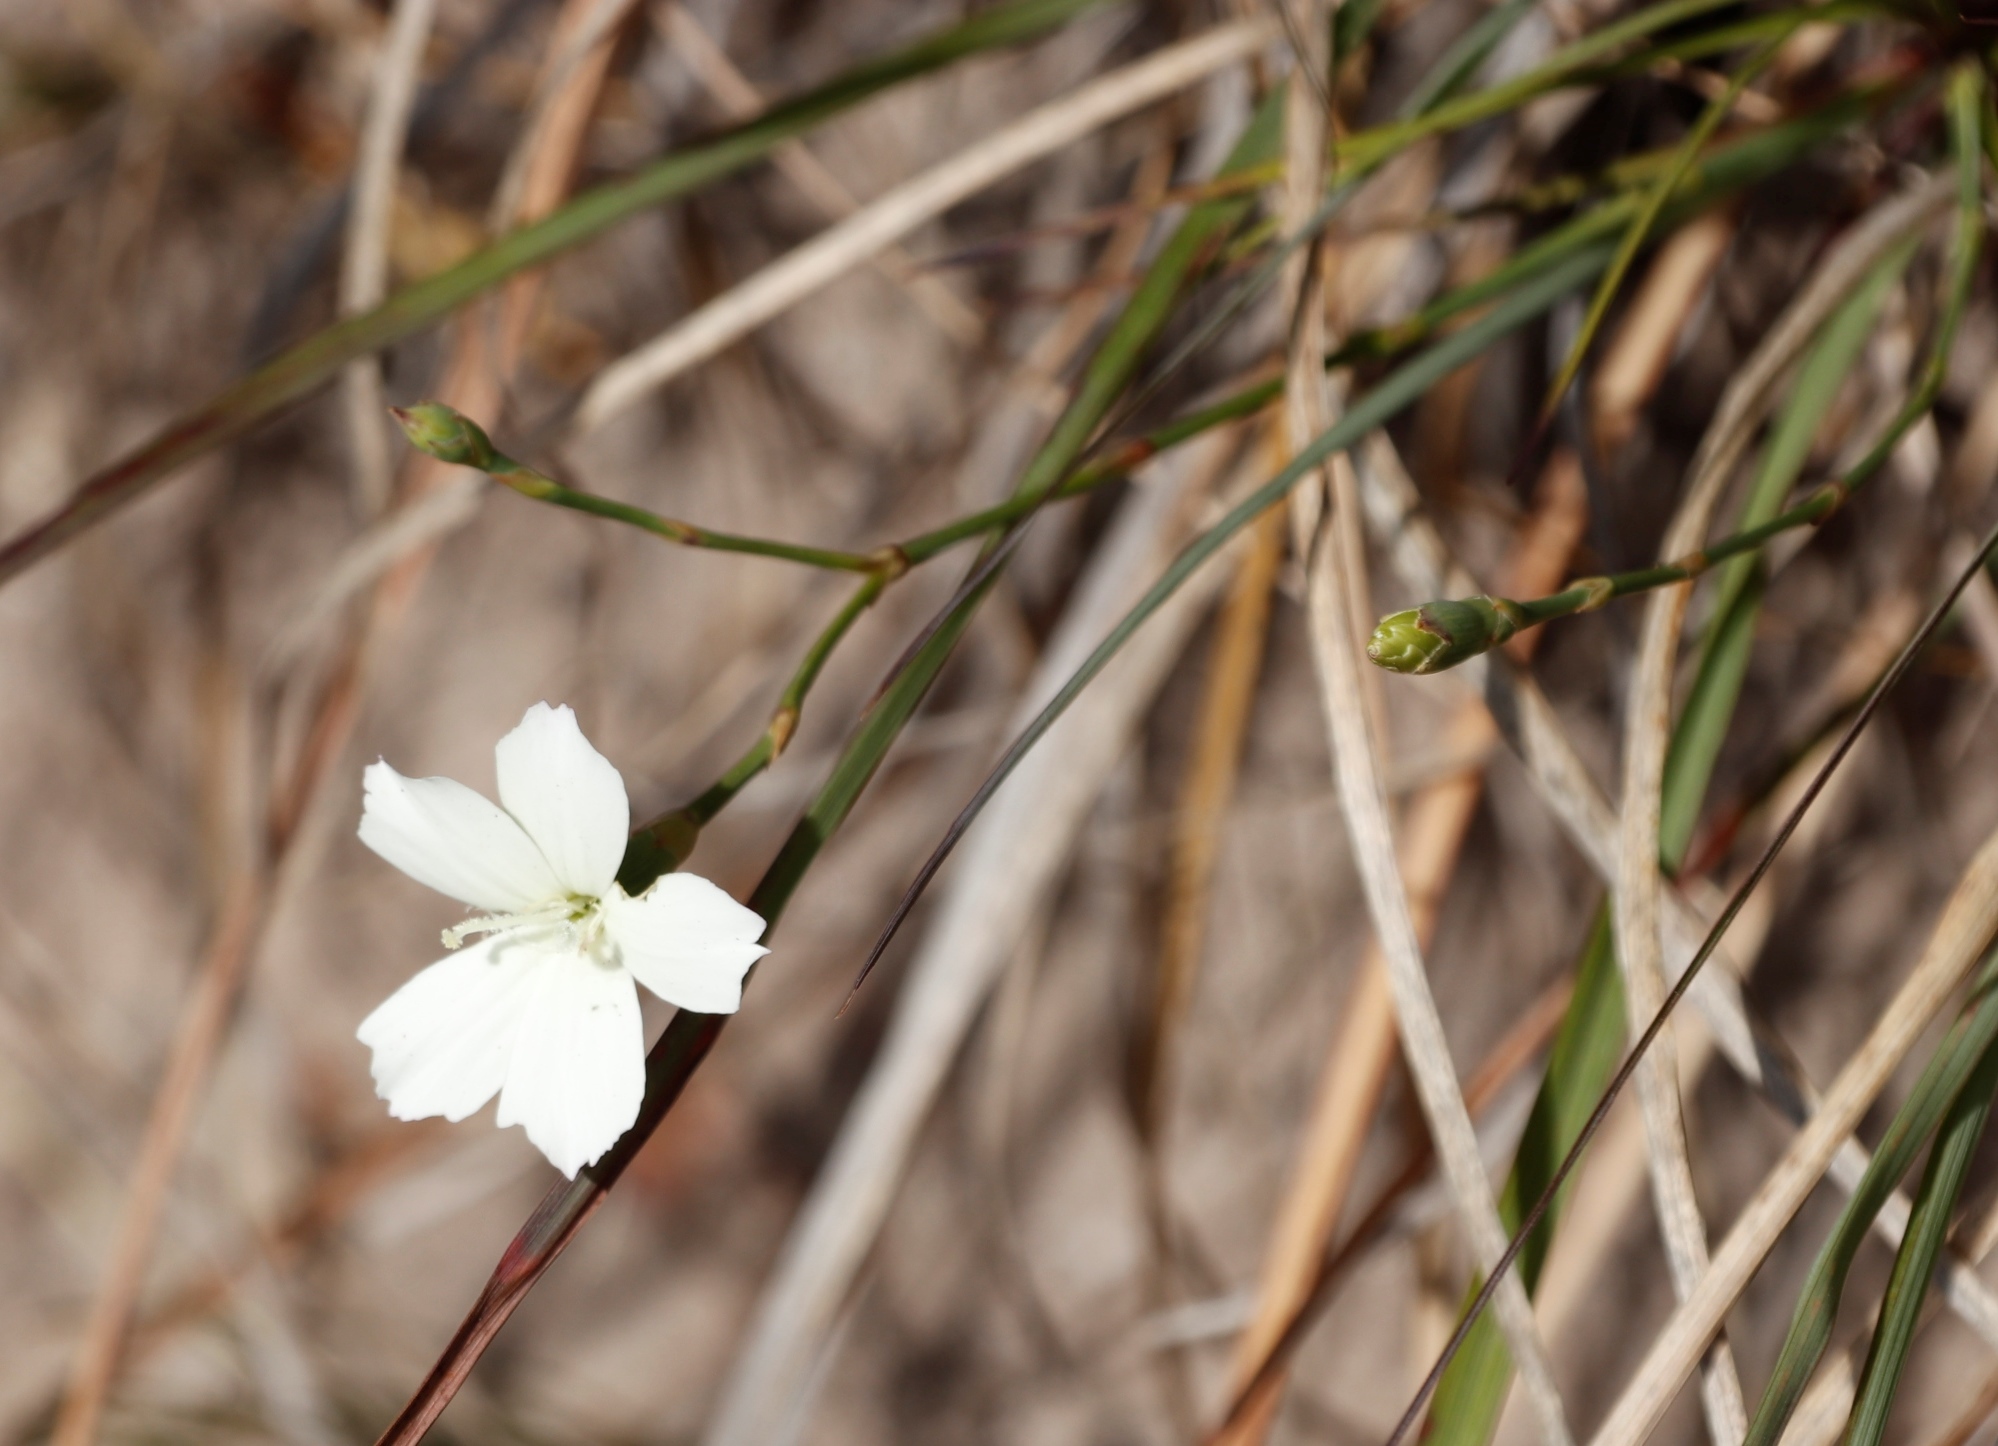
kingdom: Plantae
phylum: Tracheophyta
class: Magnoliopsida
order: Caryophyllales
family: Caryophyllaceae
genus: Dianthus
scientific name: Dianthus albens
